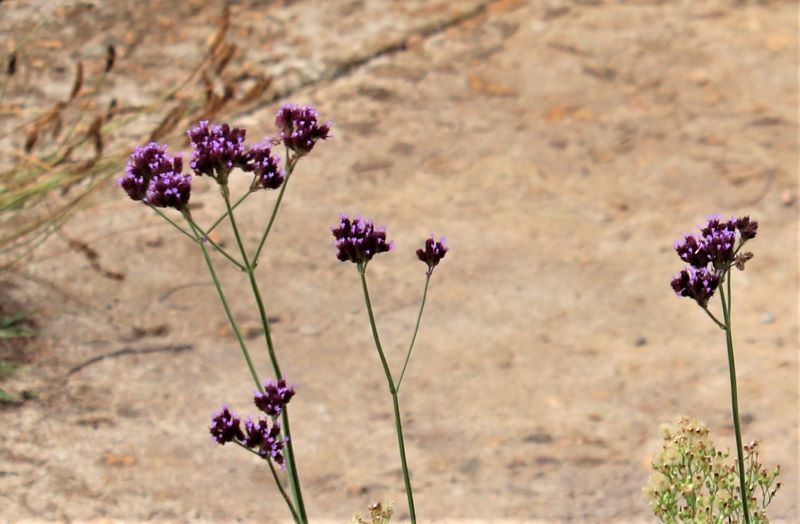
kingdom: Plantae
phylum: Tracheophyta
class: Magnoliopsida
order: Lamiales
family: Verbenaceae
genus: Verbena
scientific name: Verbena bonariensis
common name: Purpletop vervain
